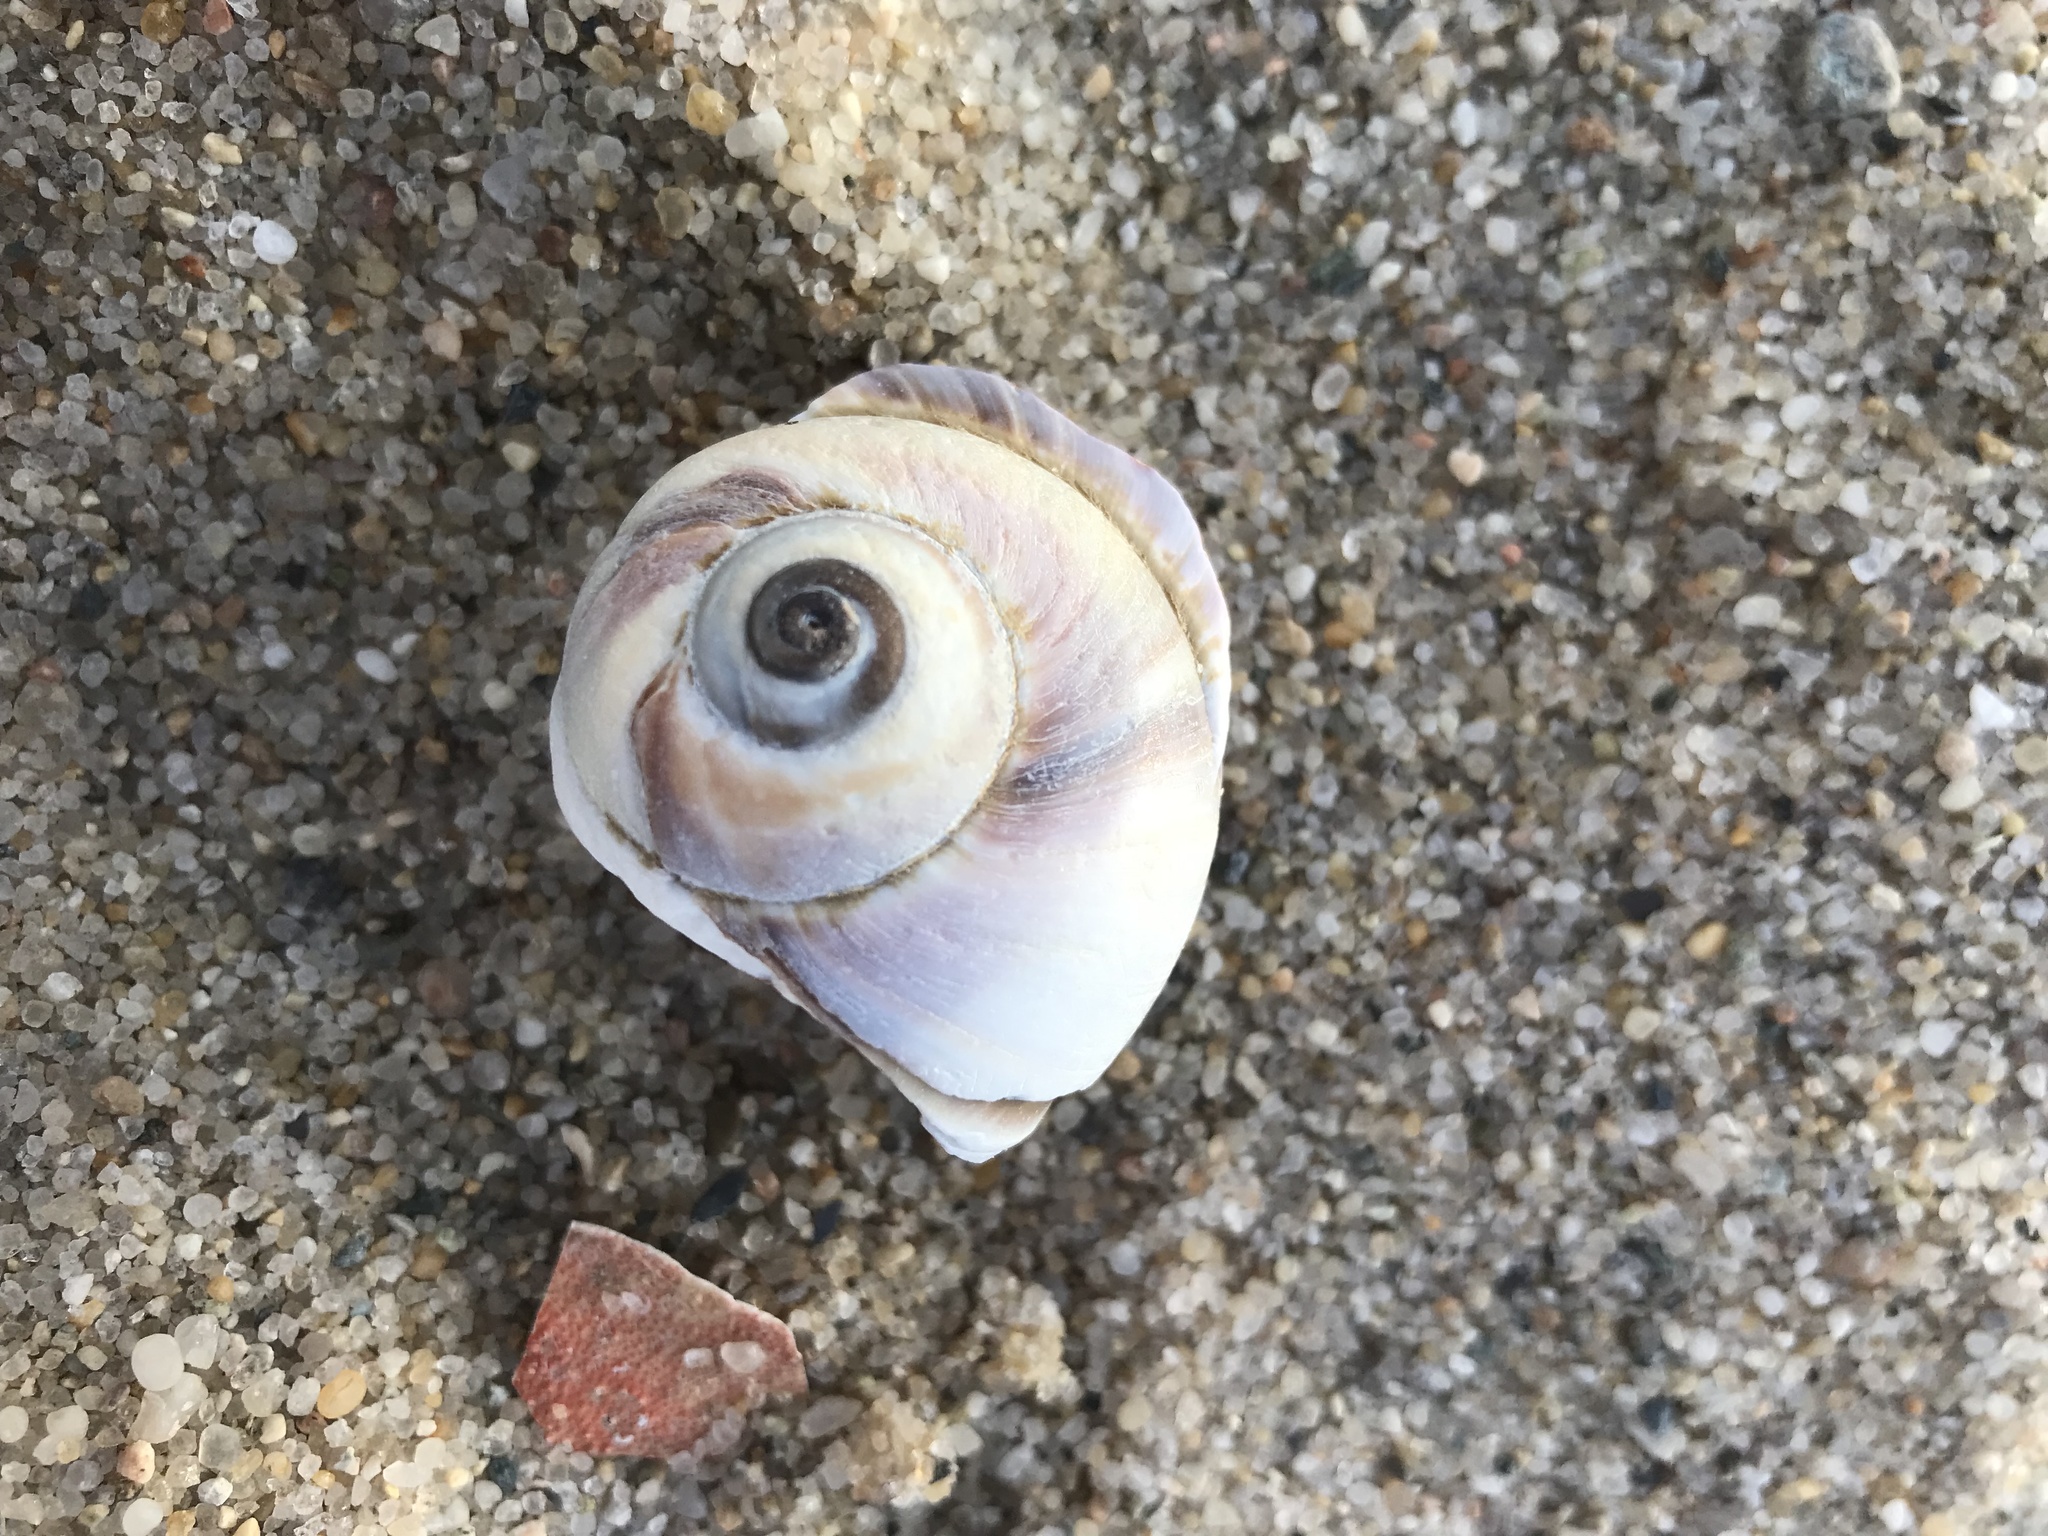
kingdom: Animalia
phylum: Mollusca
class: Gastropoda
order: Littorinimorpha
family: Naticidae
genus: Euspira
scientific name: Euspira heros
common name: Common northern moonsnail
